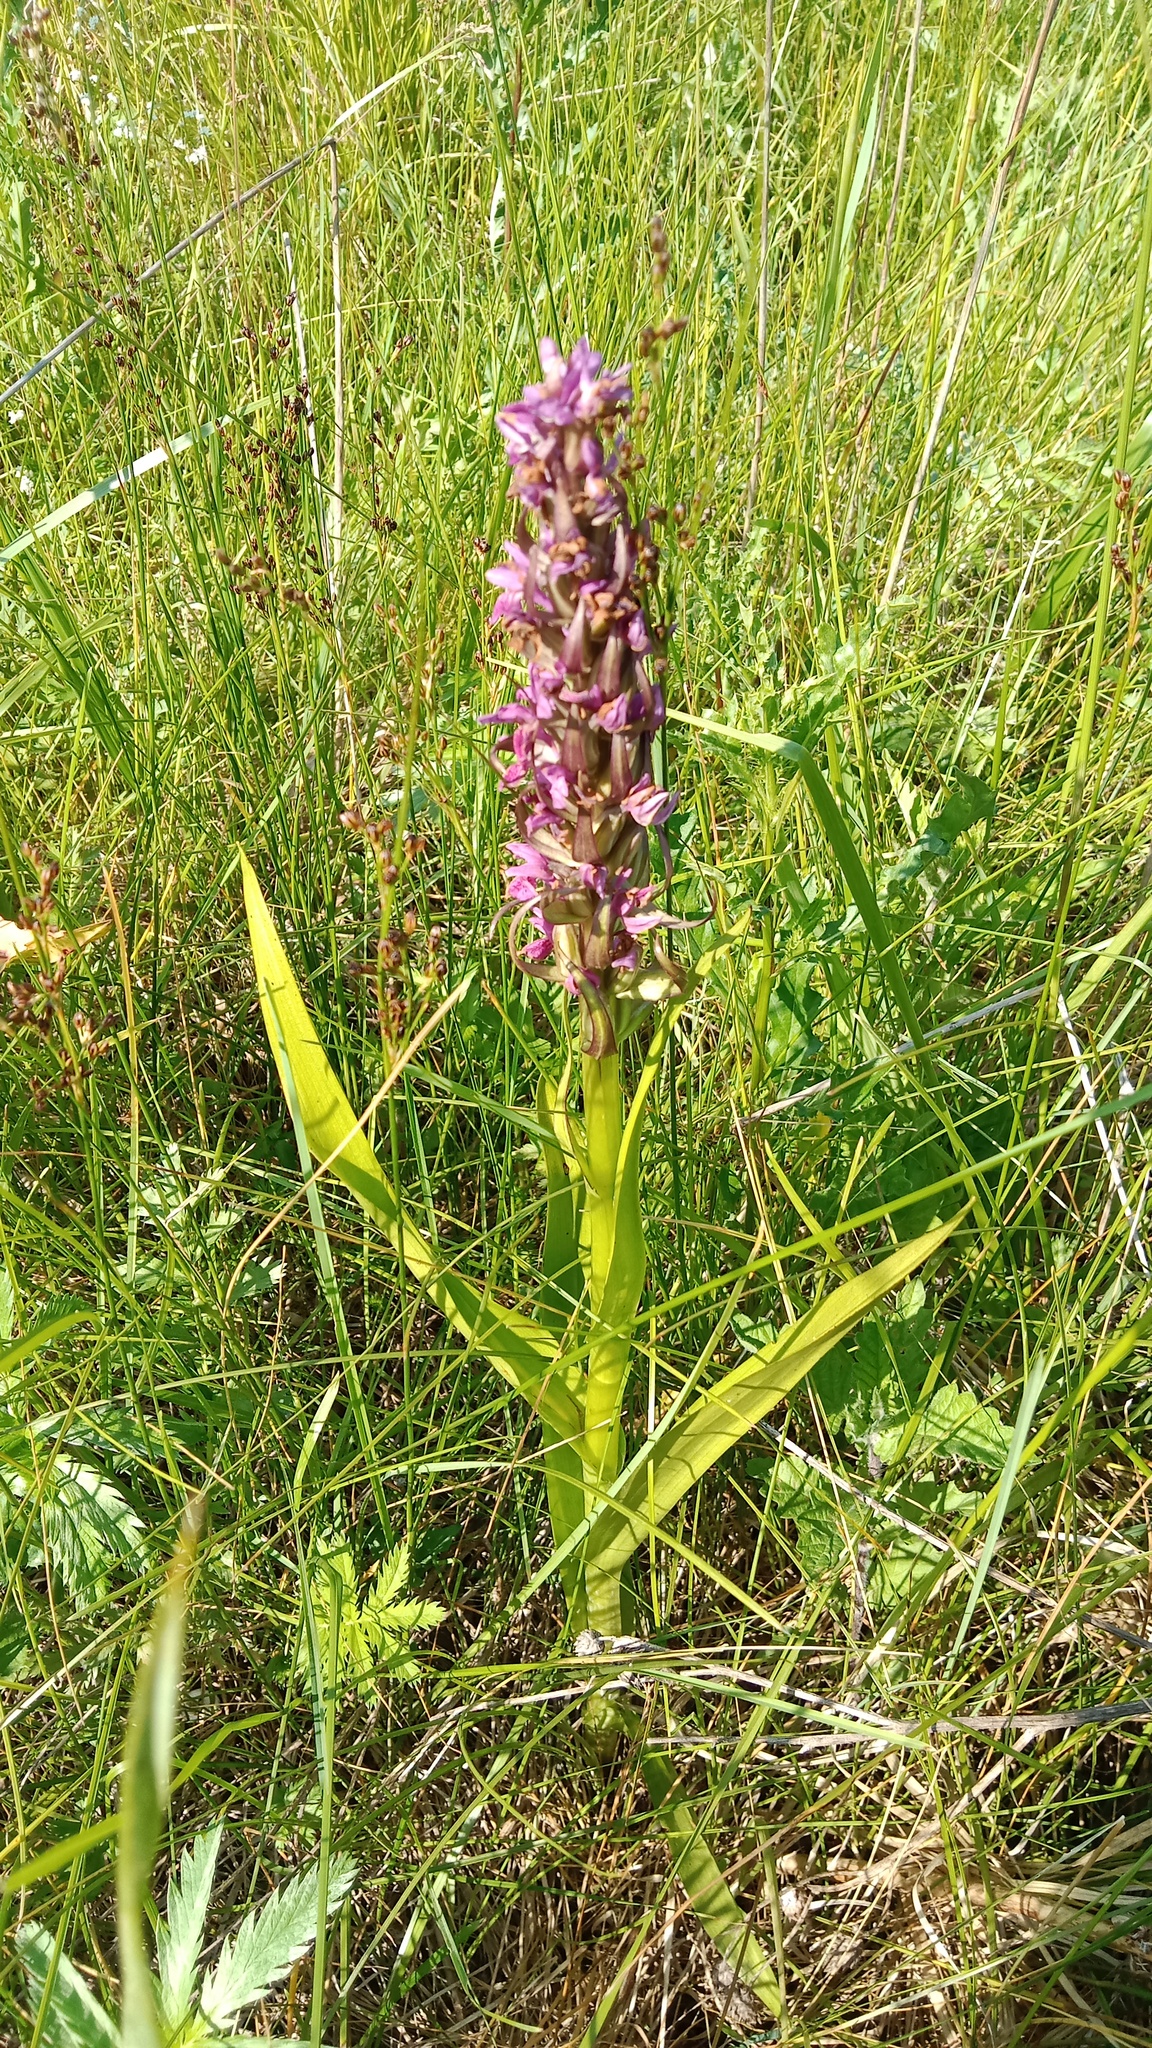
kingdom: Plantae
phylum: Tracheophyta
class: Liliopsida
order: Asparagales
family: Orchidaceae
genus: Dactylorhiza
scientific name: Dactylorhiza incarnata
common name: Early marsh-orchid
